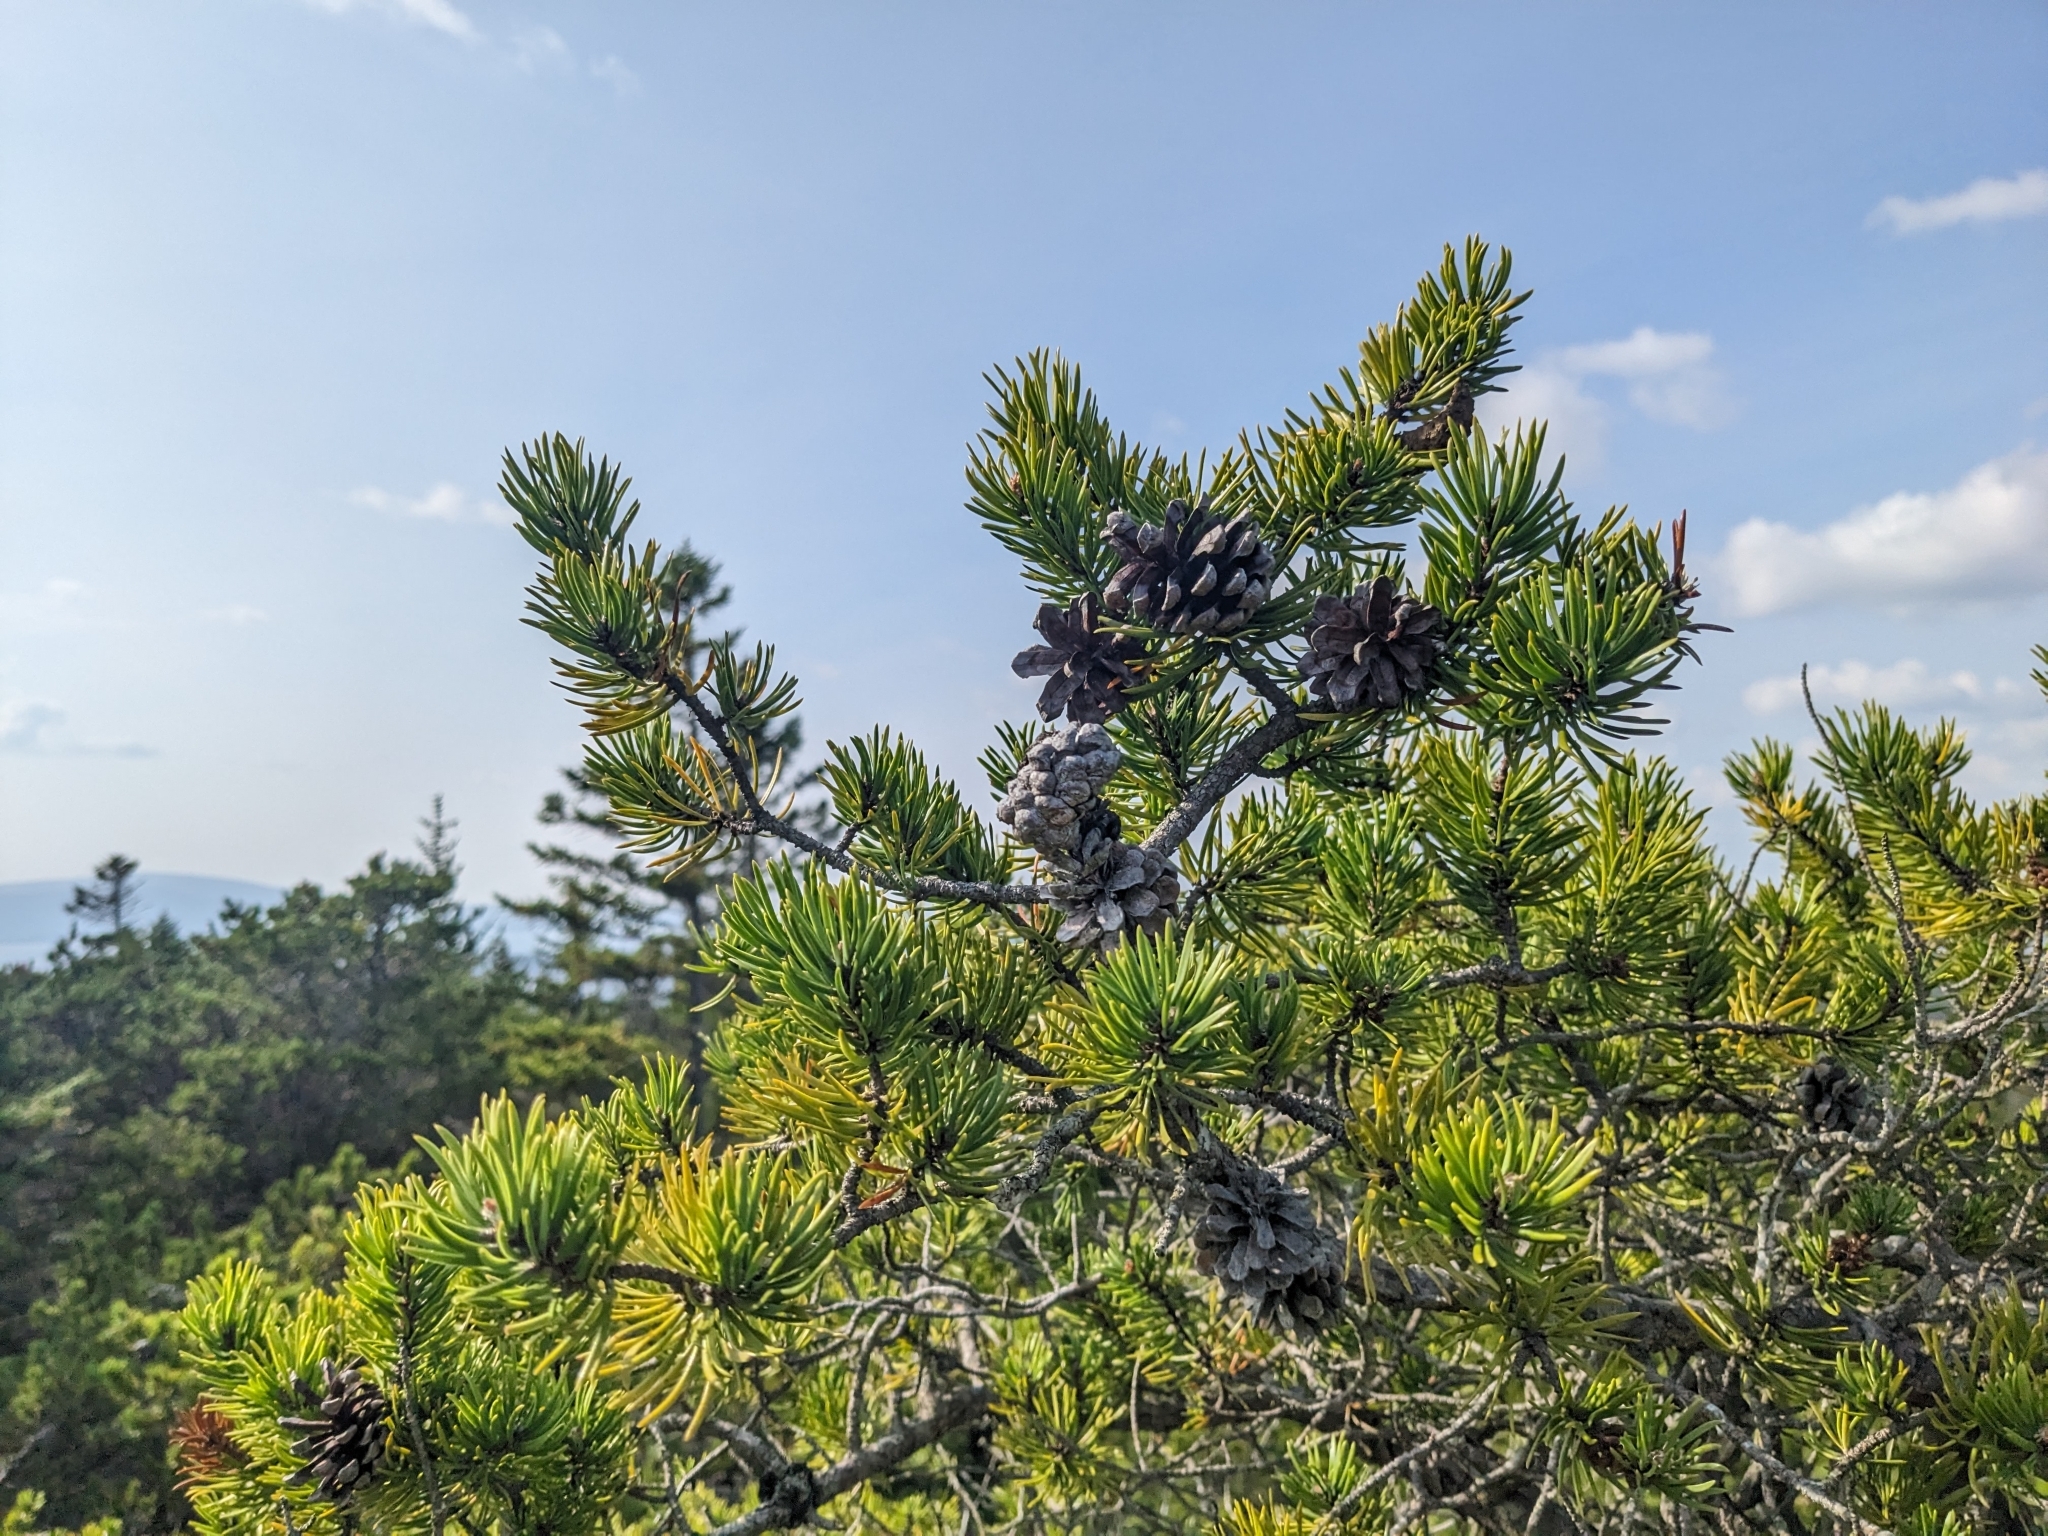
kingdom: Plantae
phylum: Tracheophyta
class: Pinopsida
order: Pinales
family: Pinaceae
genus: Pinus
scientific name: Pinus banksiana
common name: Jack pine
